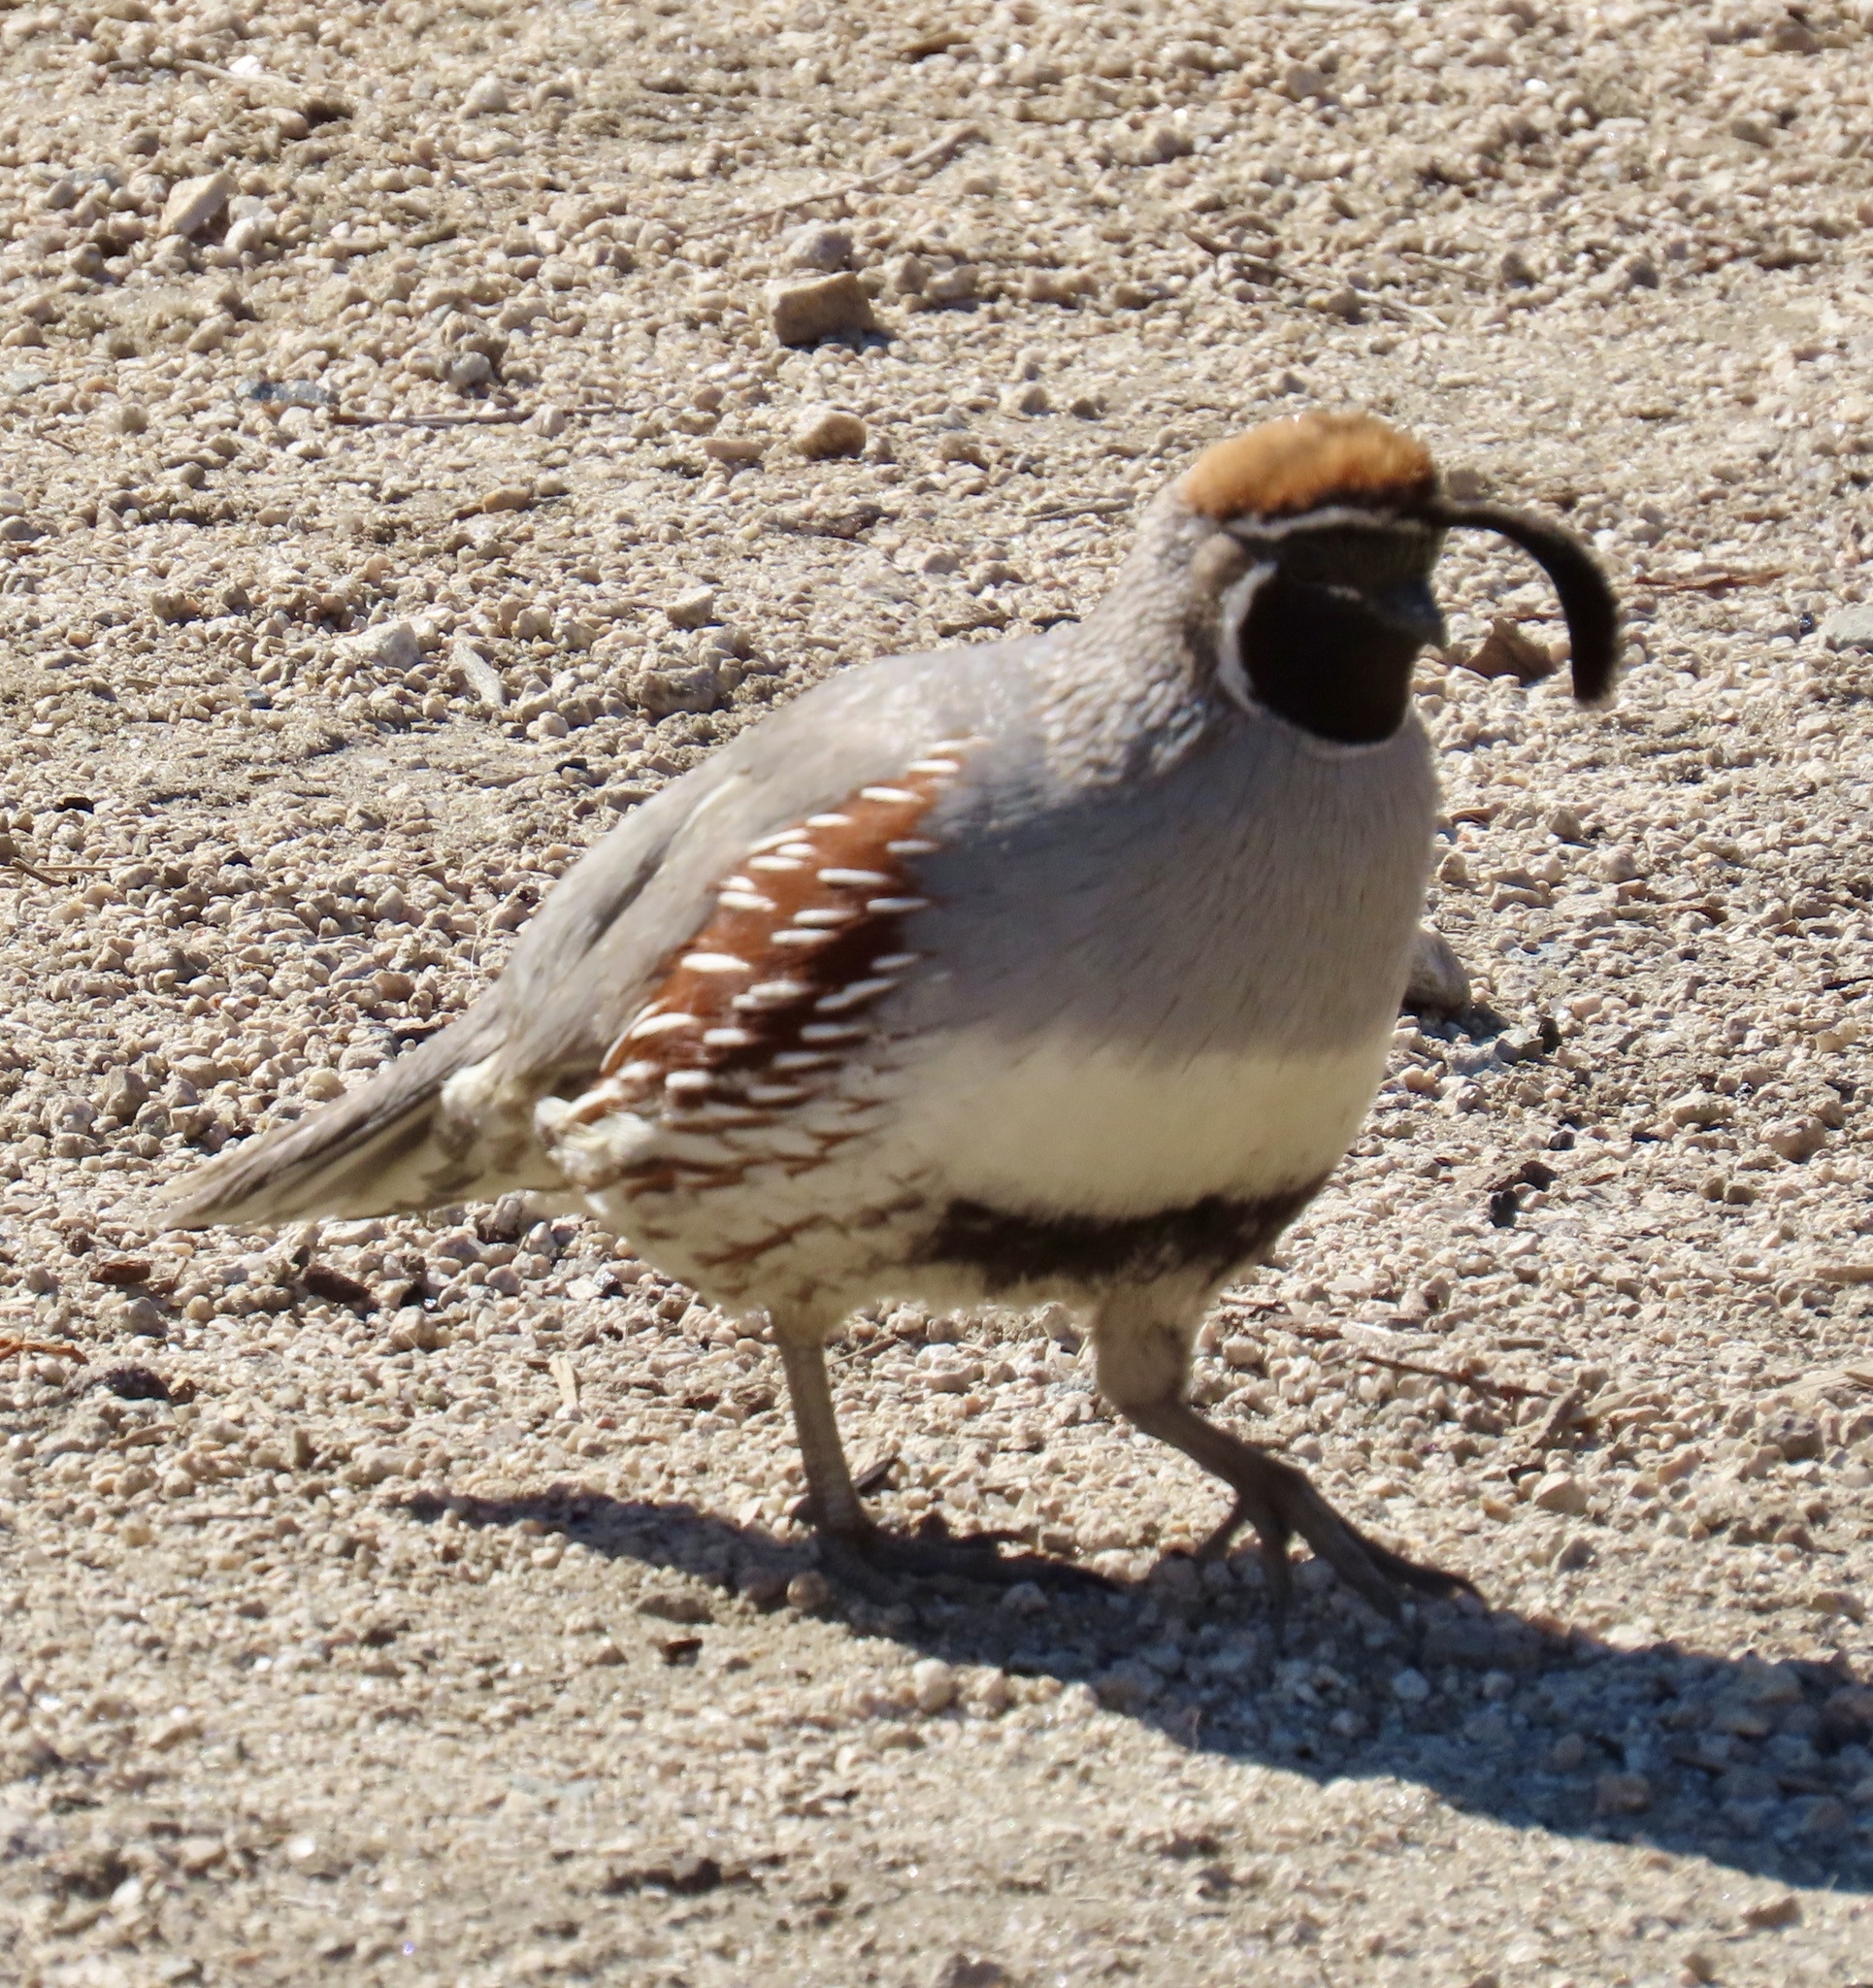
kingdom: Animalia
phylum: Chordata
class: Aves
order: Galliformes
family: Odontophoridae
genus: Callipepla
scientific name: Callipepla gambelii
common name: Gambel's quail
